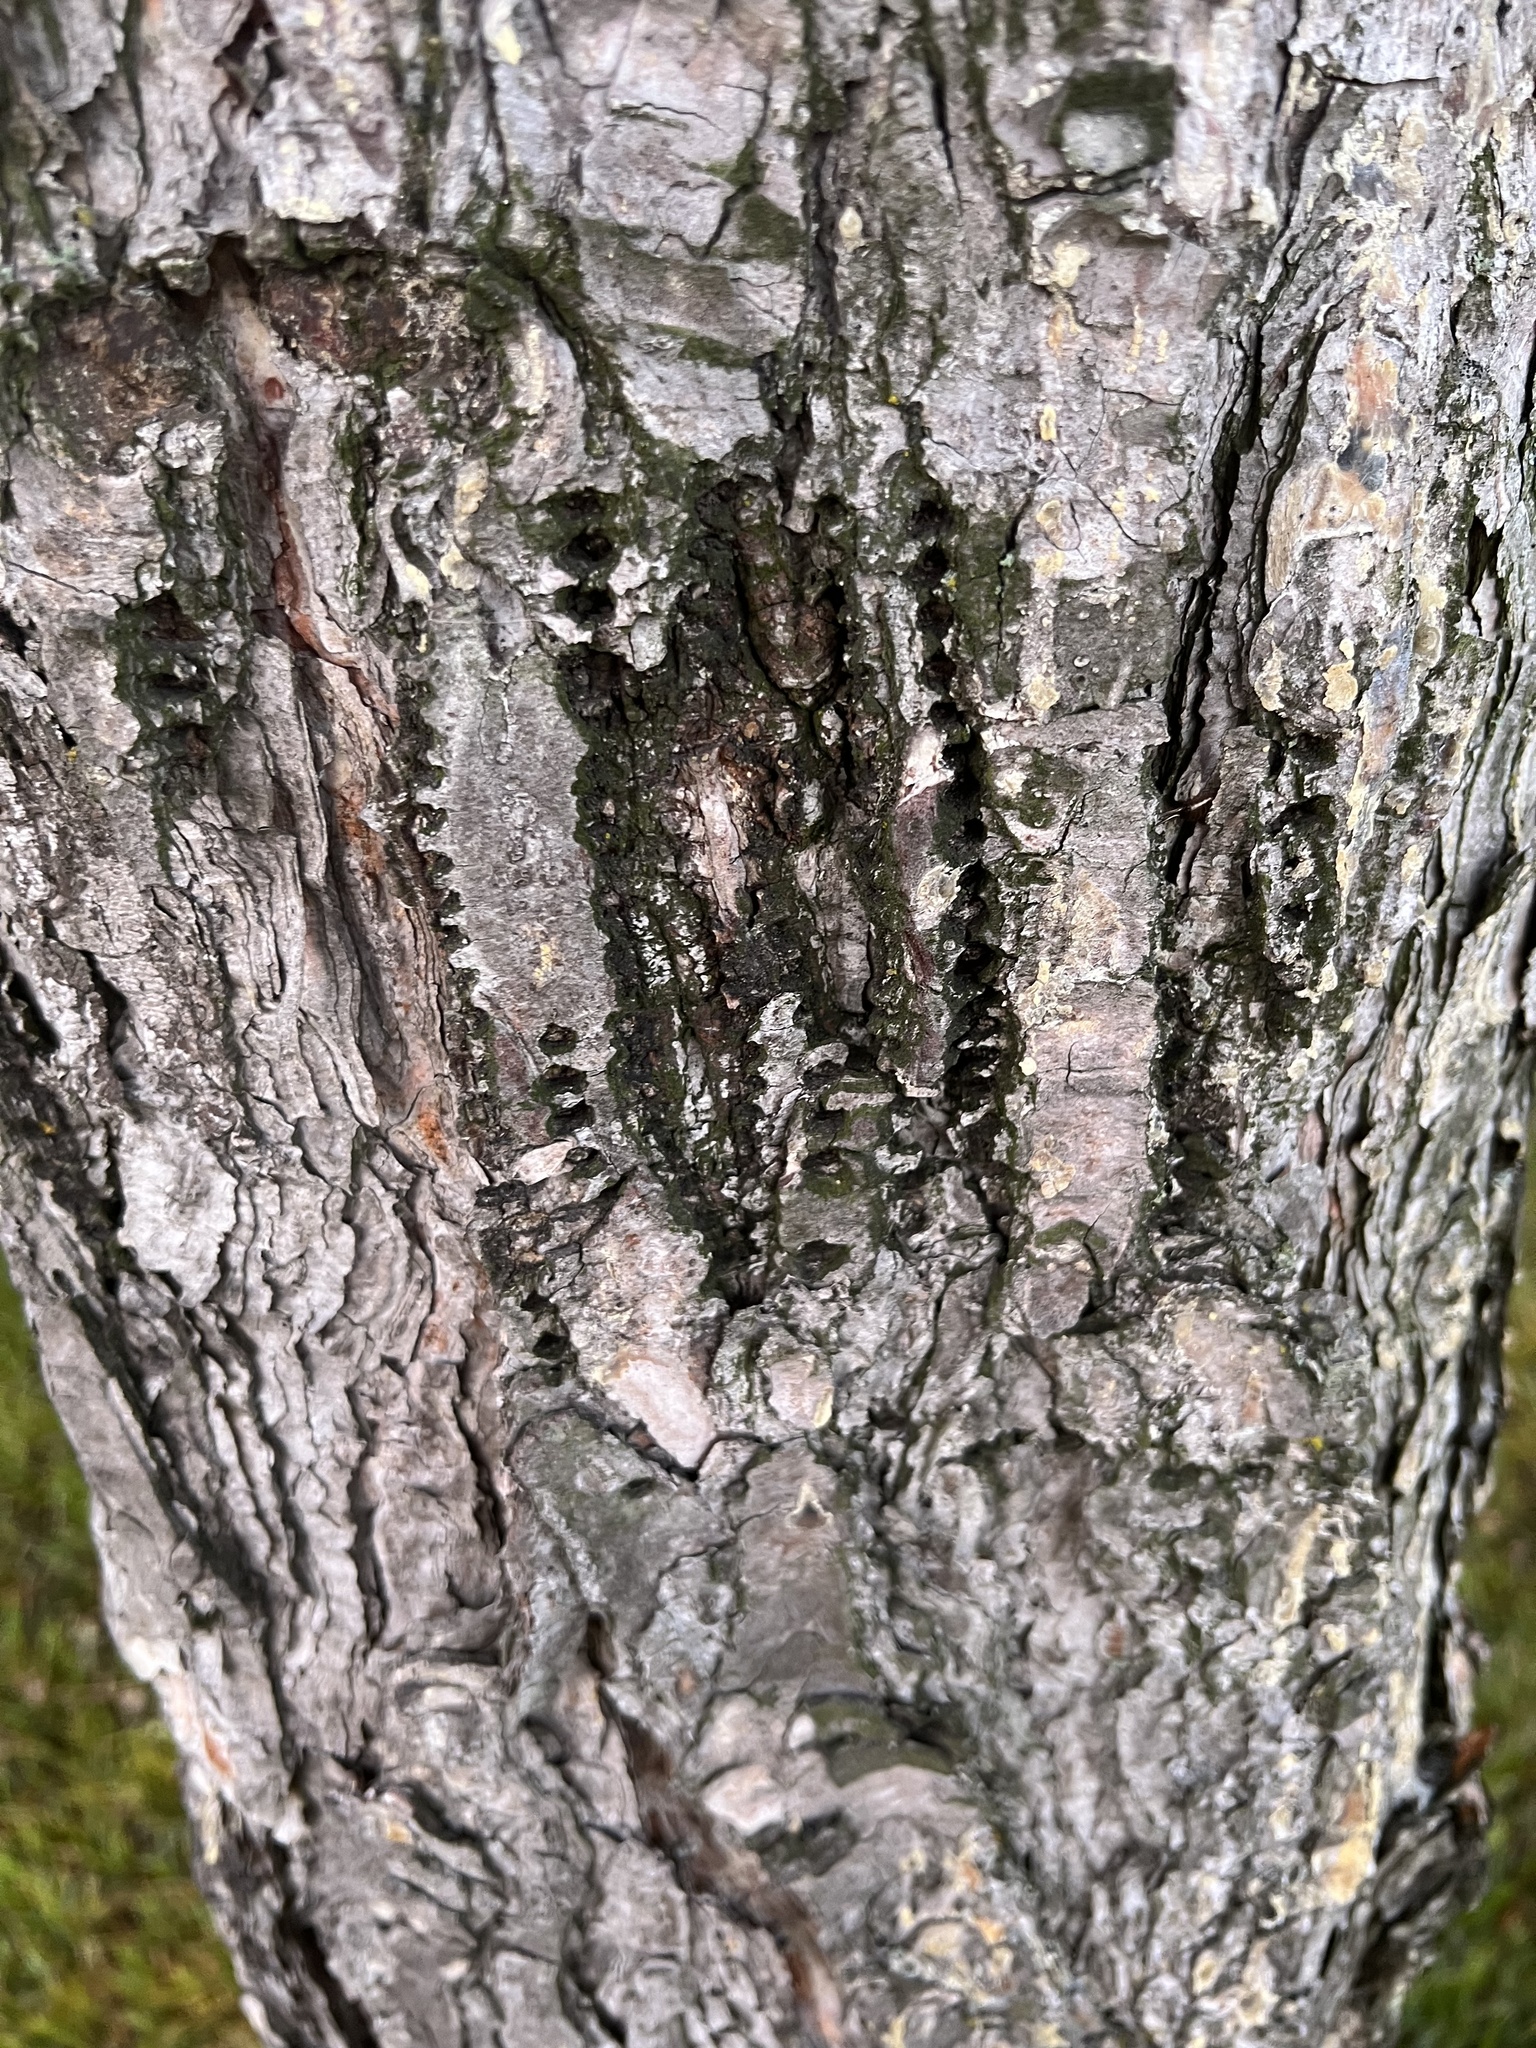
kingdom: Animalia
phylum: Chordata
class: Aves
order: Piciformes
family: Picidae
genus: Sphyrapicus
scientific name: Sphyrapicus varius
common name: Yellow-bellied sapsucker
